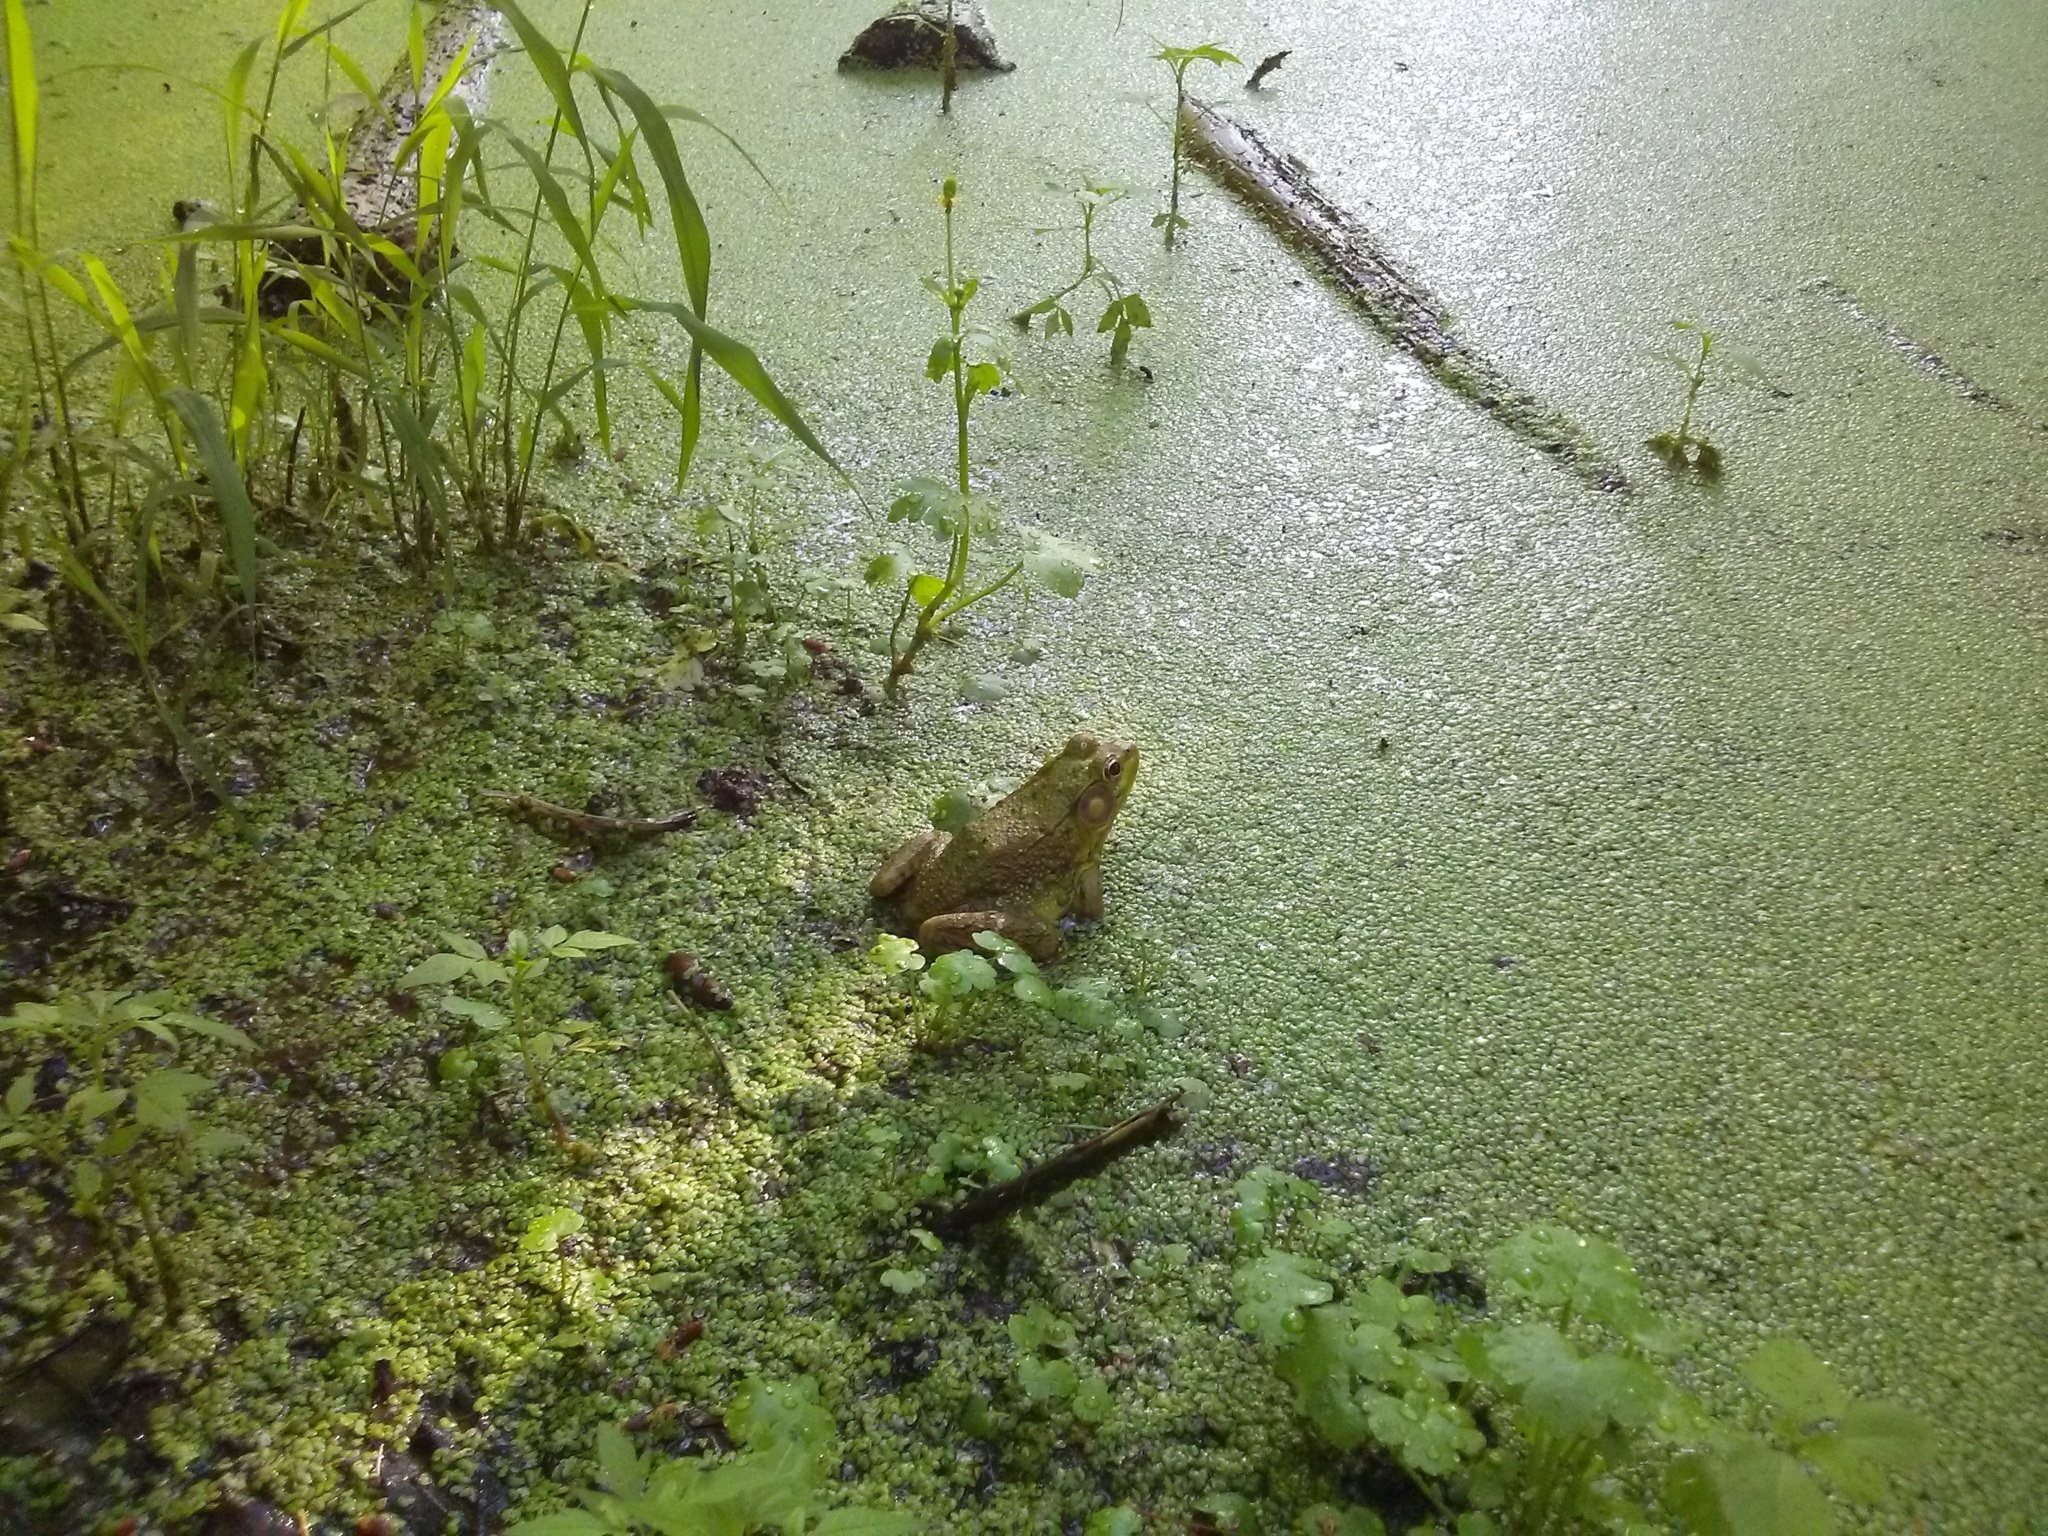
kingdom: Animalia
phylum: Chordata
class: Amphibia
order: Anura
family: Ranidae
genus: Lithobates
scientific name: Lithobates clamitans
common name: Green frog
